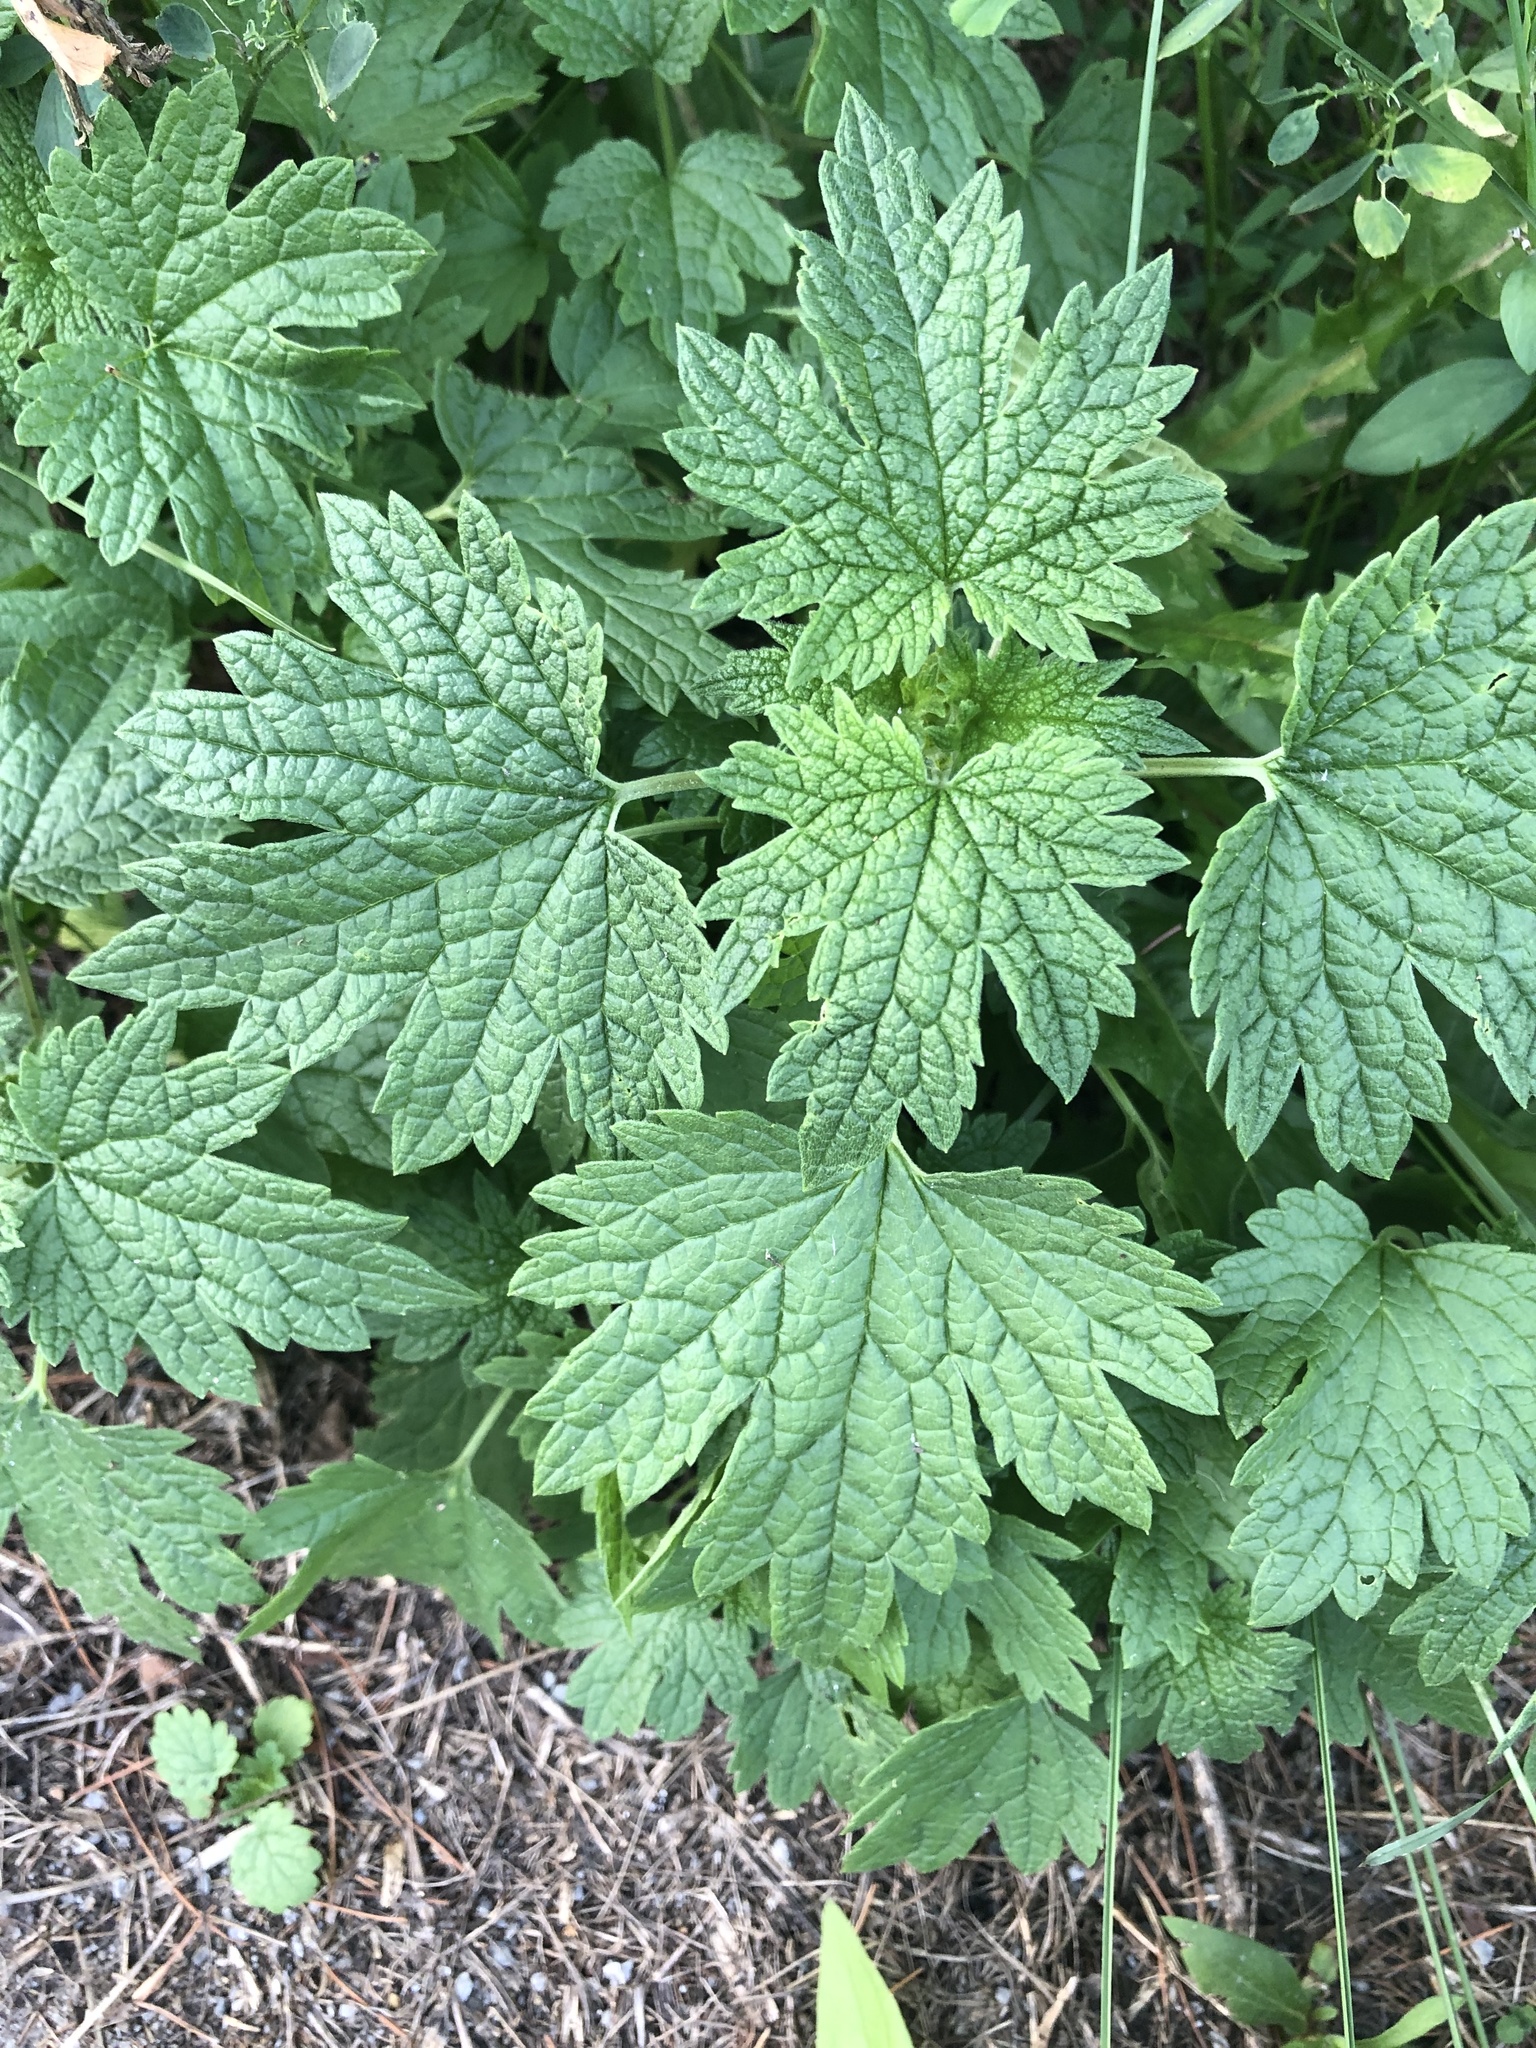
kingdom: Plantae
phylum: Tracheophyta
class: Magnoliopsida
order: Lamiales
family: Lamiaceae
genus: Leonurus
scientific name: Leonurus cardiaca
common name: Motherwort
